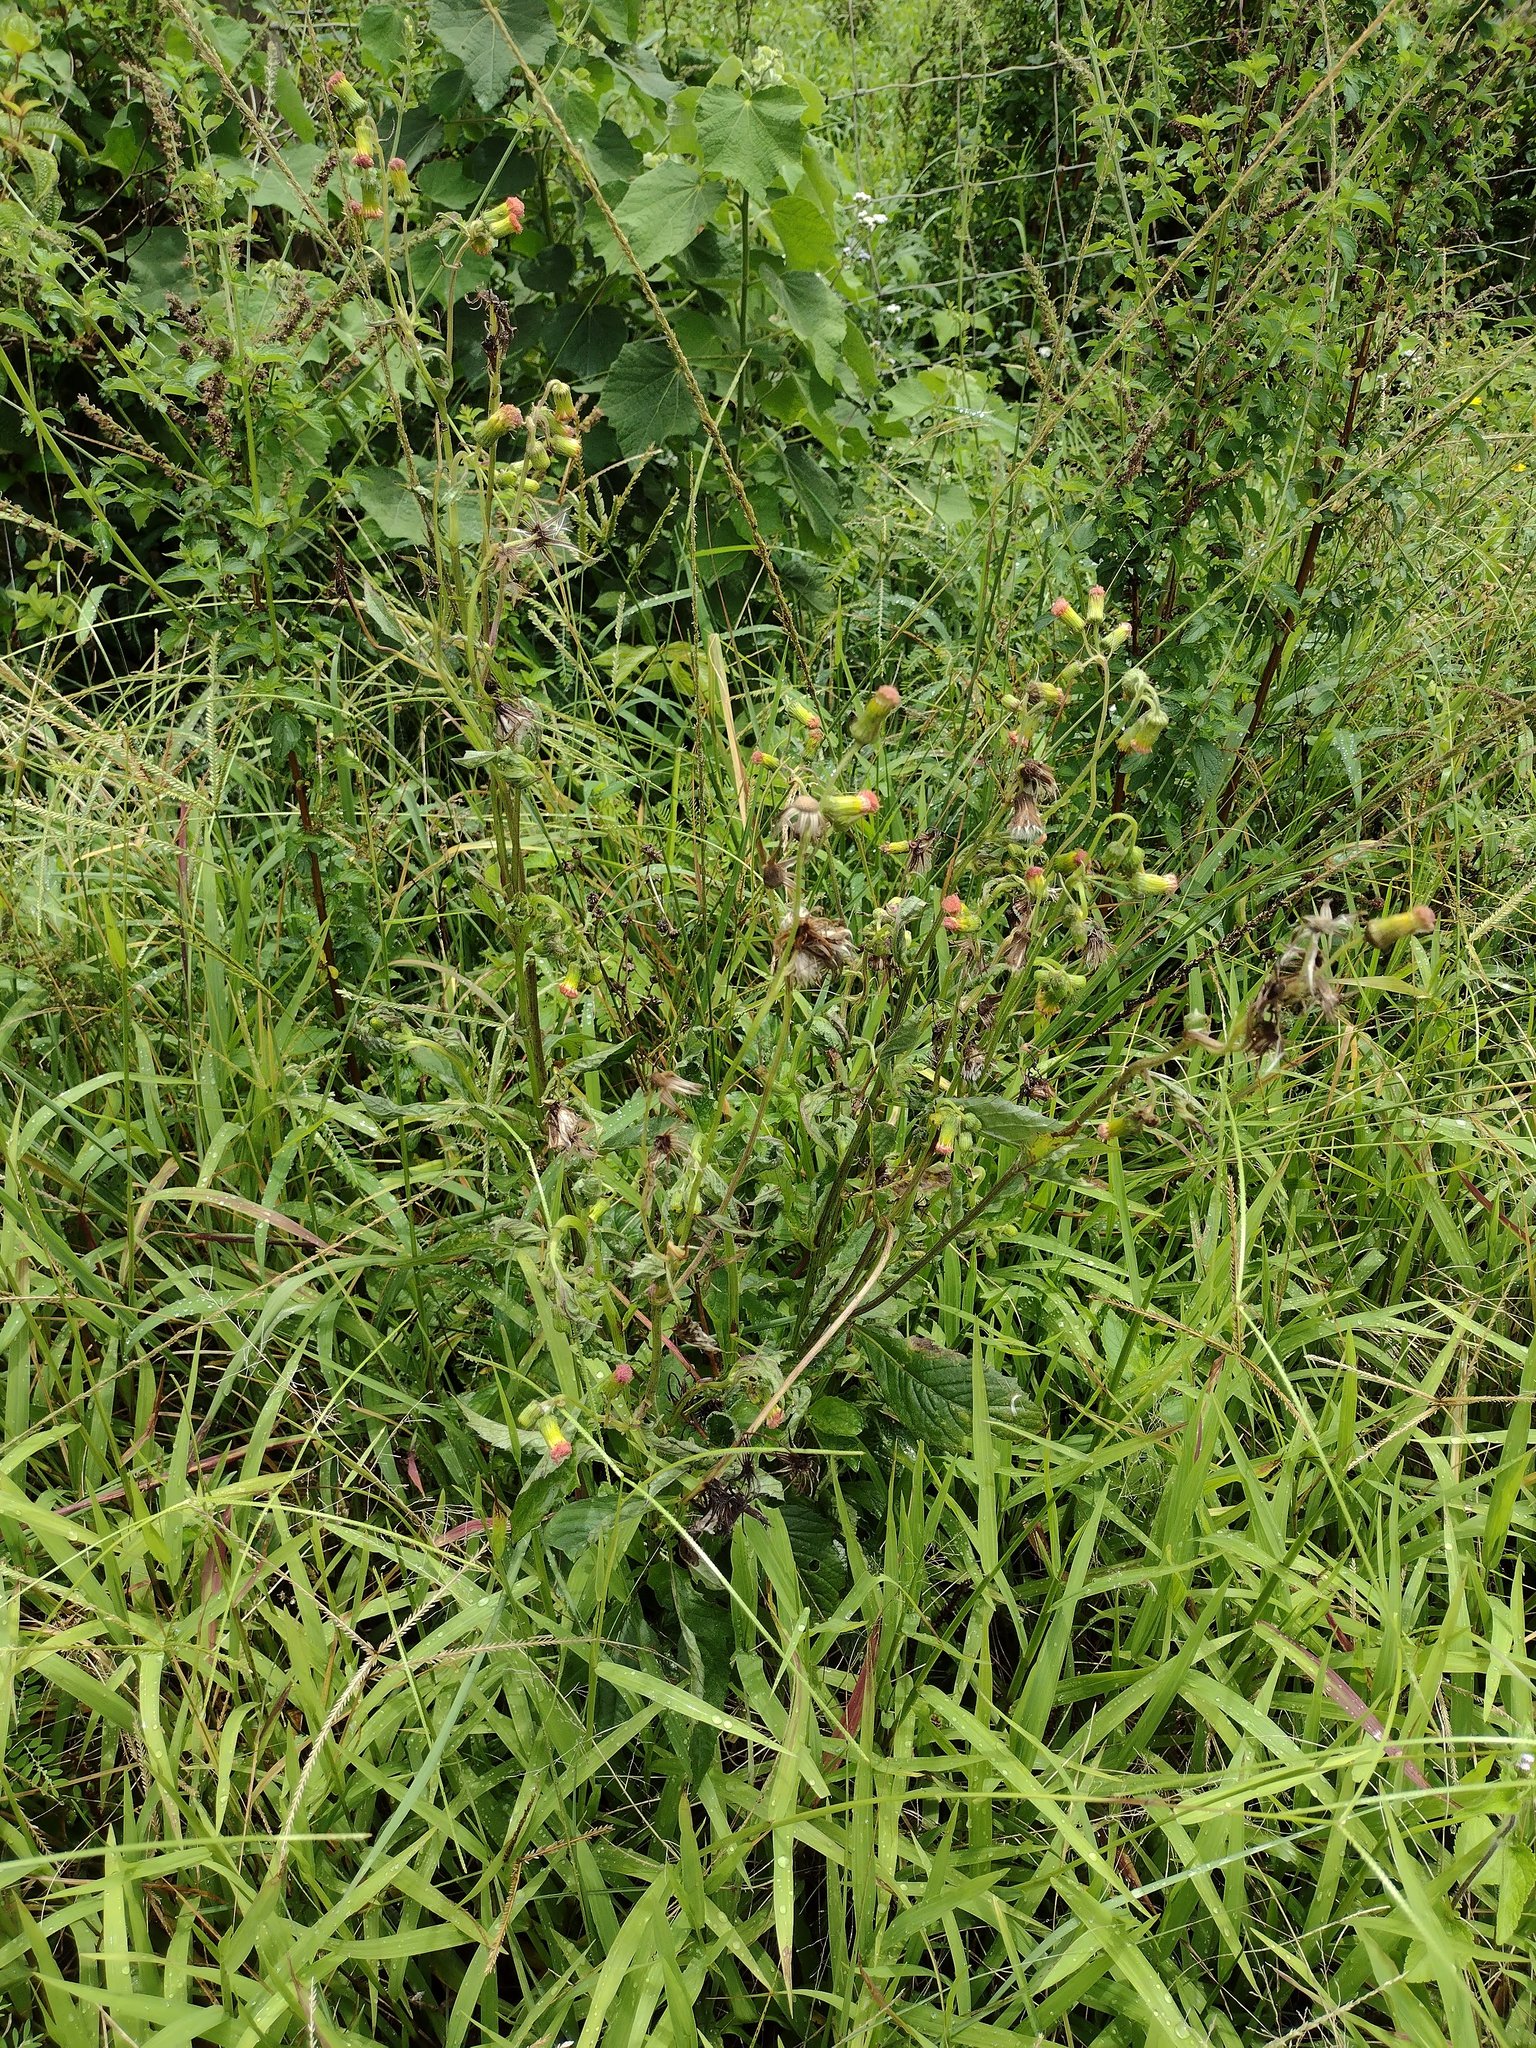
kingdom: Plantae
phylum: Tracheophyta
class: Magnoliopsida
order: Asterales
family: Asteraceae
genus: Crassocephalum
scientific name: Crassocephalum crepidioides
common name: Redflower ragleaf
